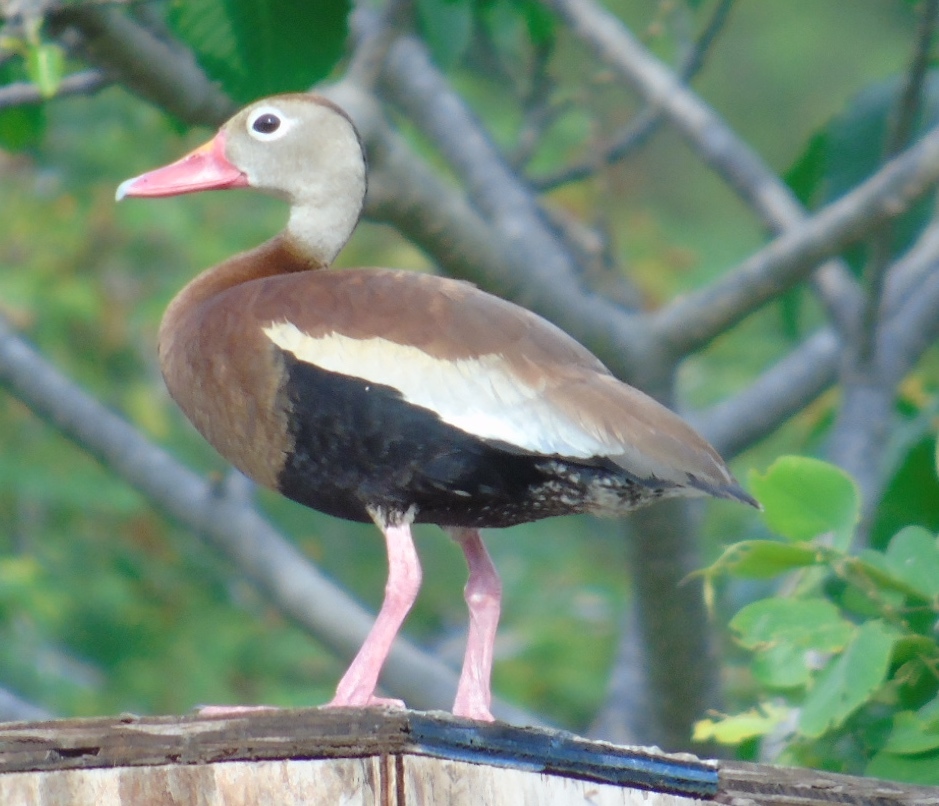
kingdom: Animalia
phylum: Chordata
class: Aves
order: Anseriformes
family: Anatidae
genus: Dendrocygna
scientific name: Dendrocygna autumnalis
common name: Black-bellied whistling duck
